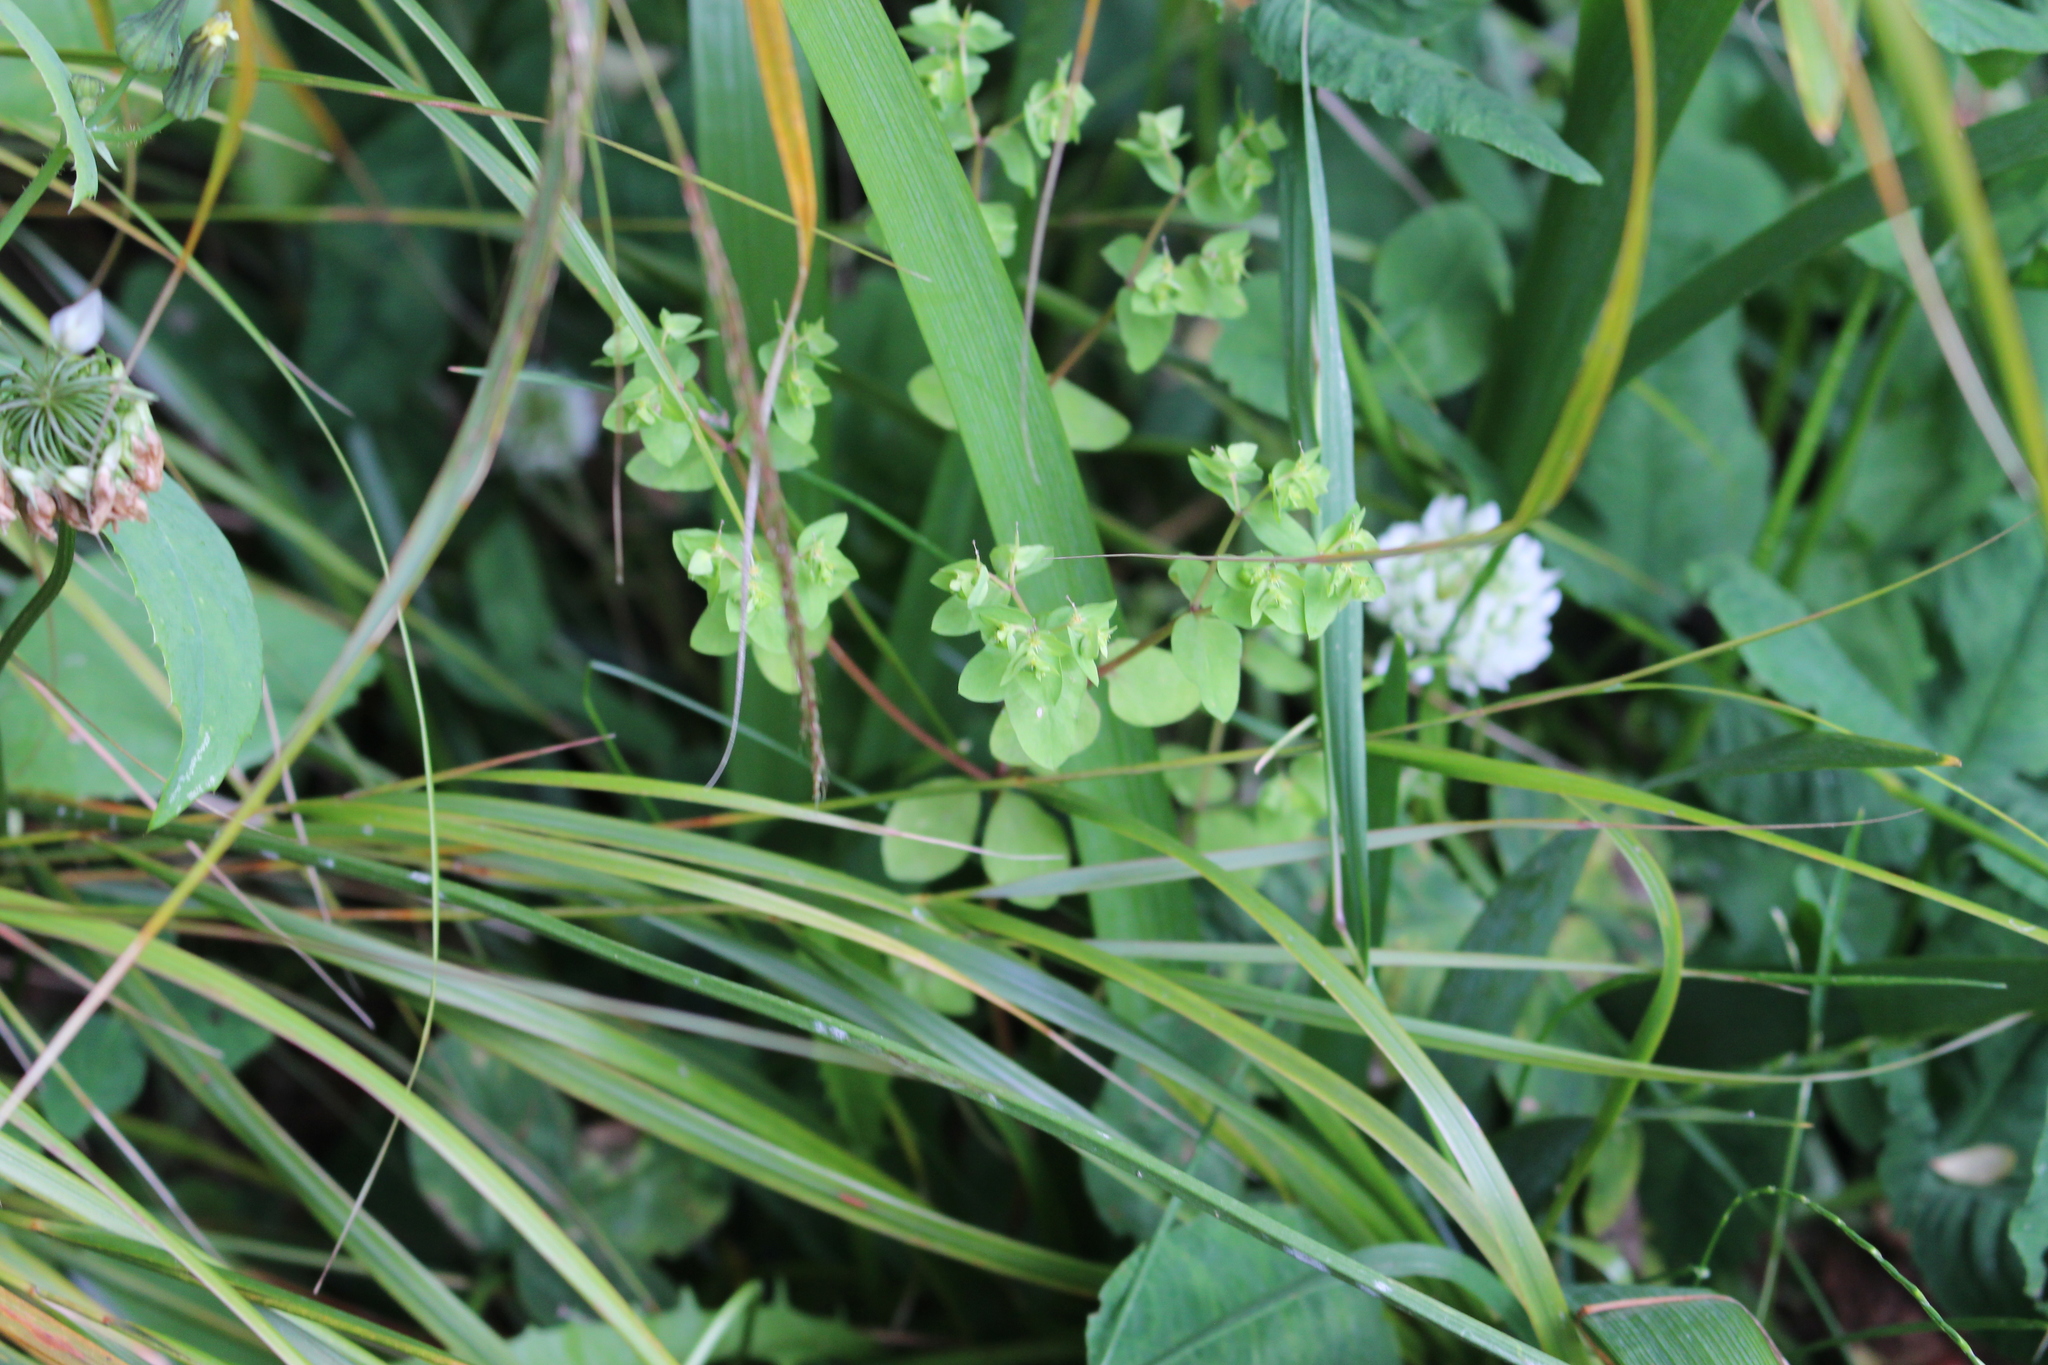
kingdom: Plantae
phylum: Tracheophyta
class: Magnoliopsida
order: Malpighiales
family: Euphorbiaceae
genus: Euphorbia
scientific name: Euphorbia peplus
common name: Petty spurge
